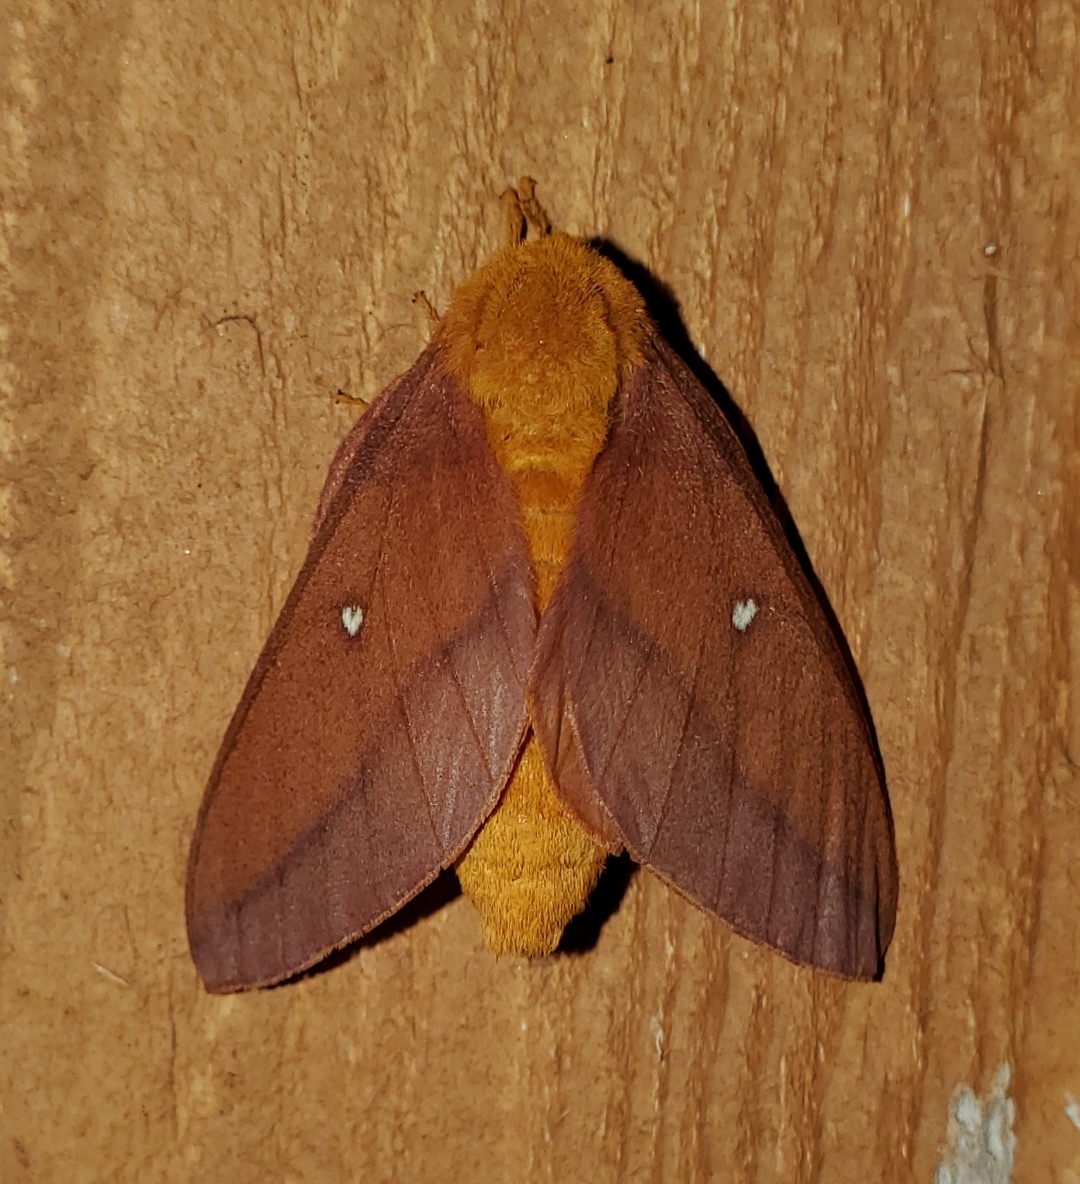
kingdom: Animalia
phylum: Arthropoda
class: Insecta
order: Lepidoptera
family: Saturniidae
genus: Anisota
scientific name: Anisota virginiensis
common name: Pink striped oakworm moth
